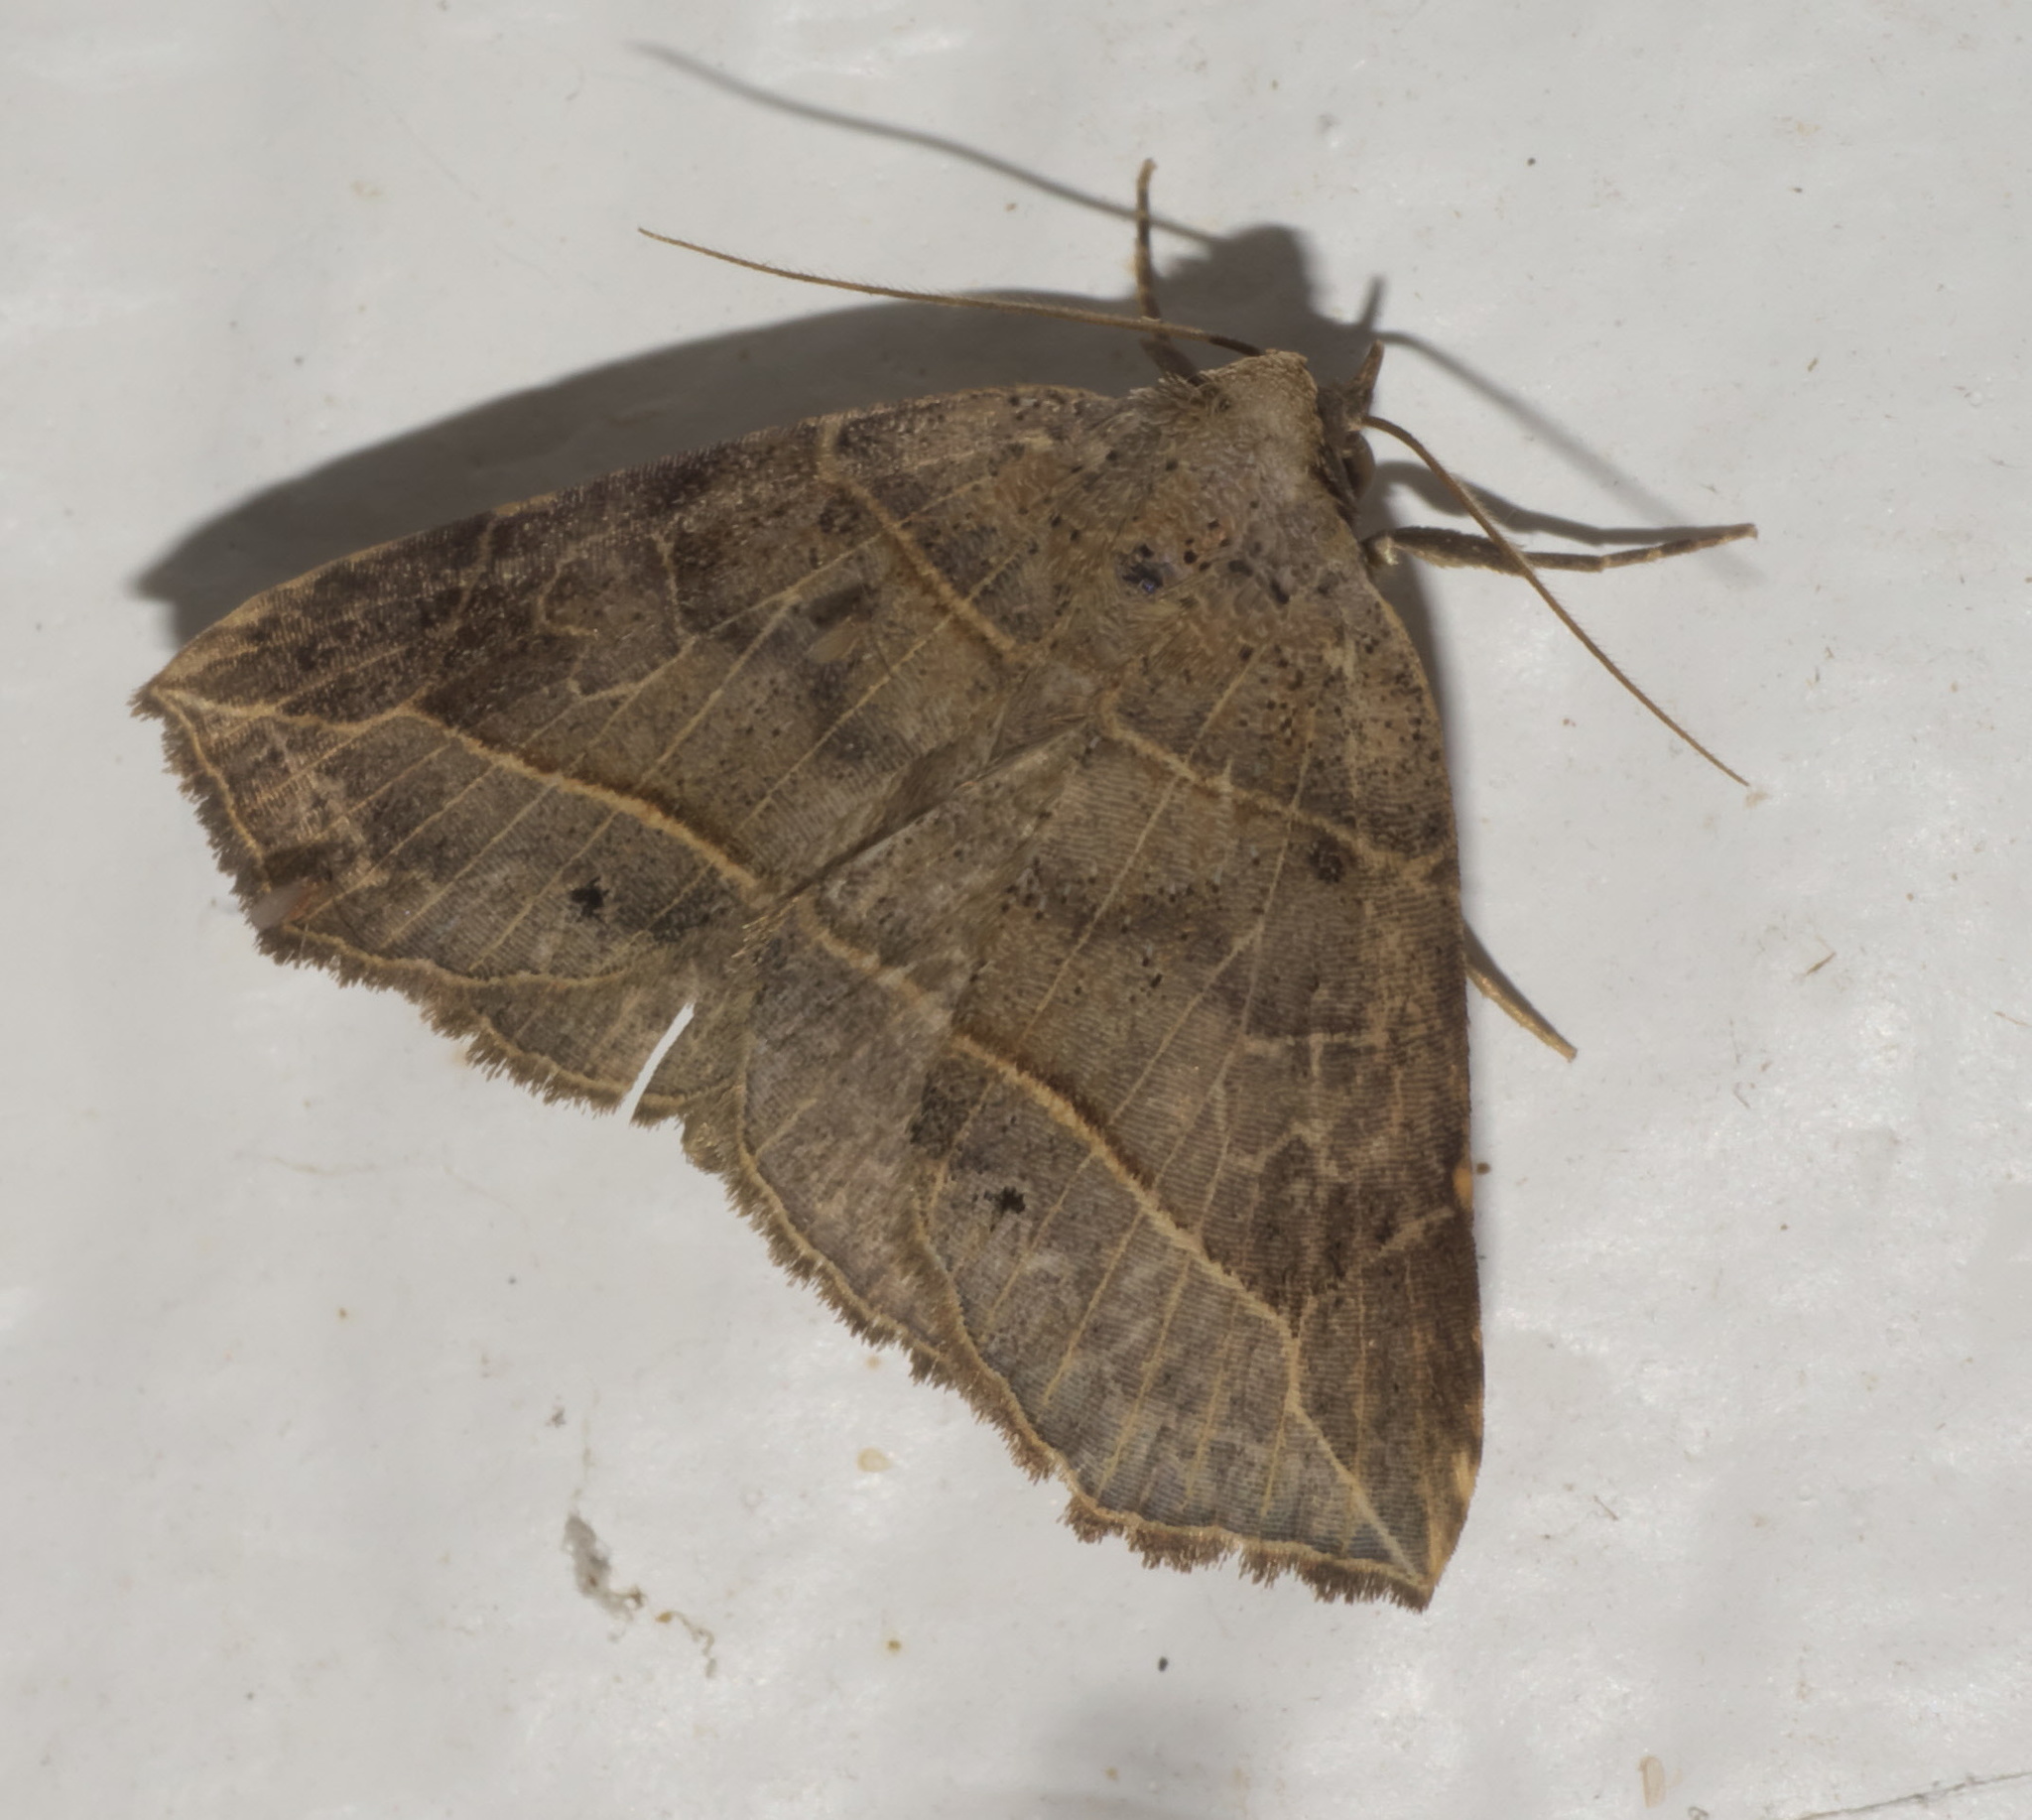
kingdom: Animalia
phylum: Arthropoda
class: Insecta
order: Lepidoptera
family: Erebidae
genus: Isogona
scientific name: Isogona tenuis
